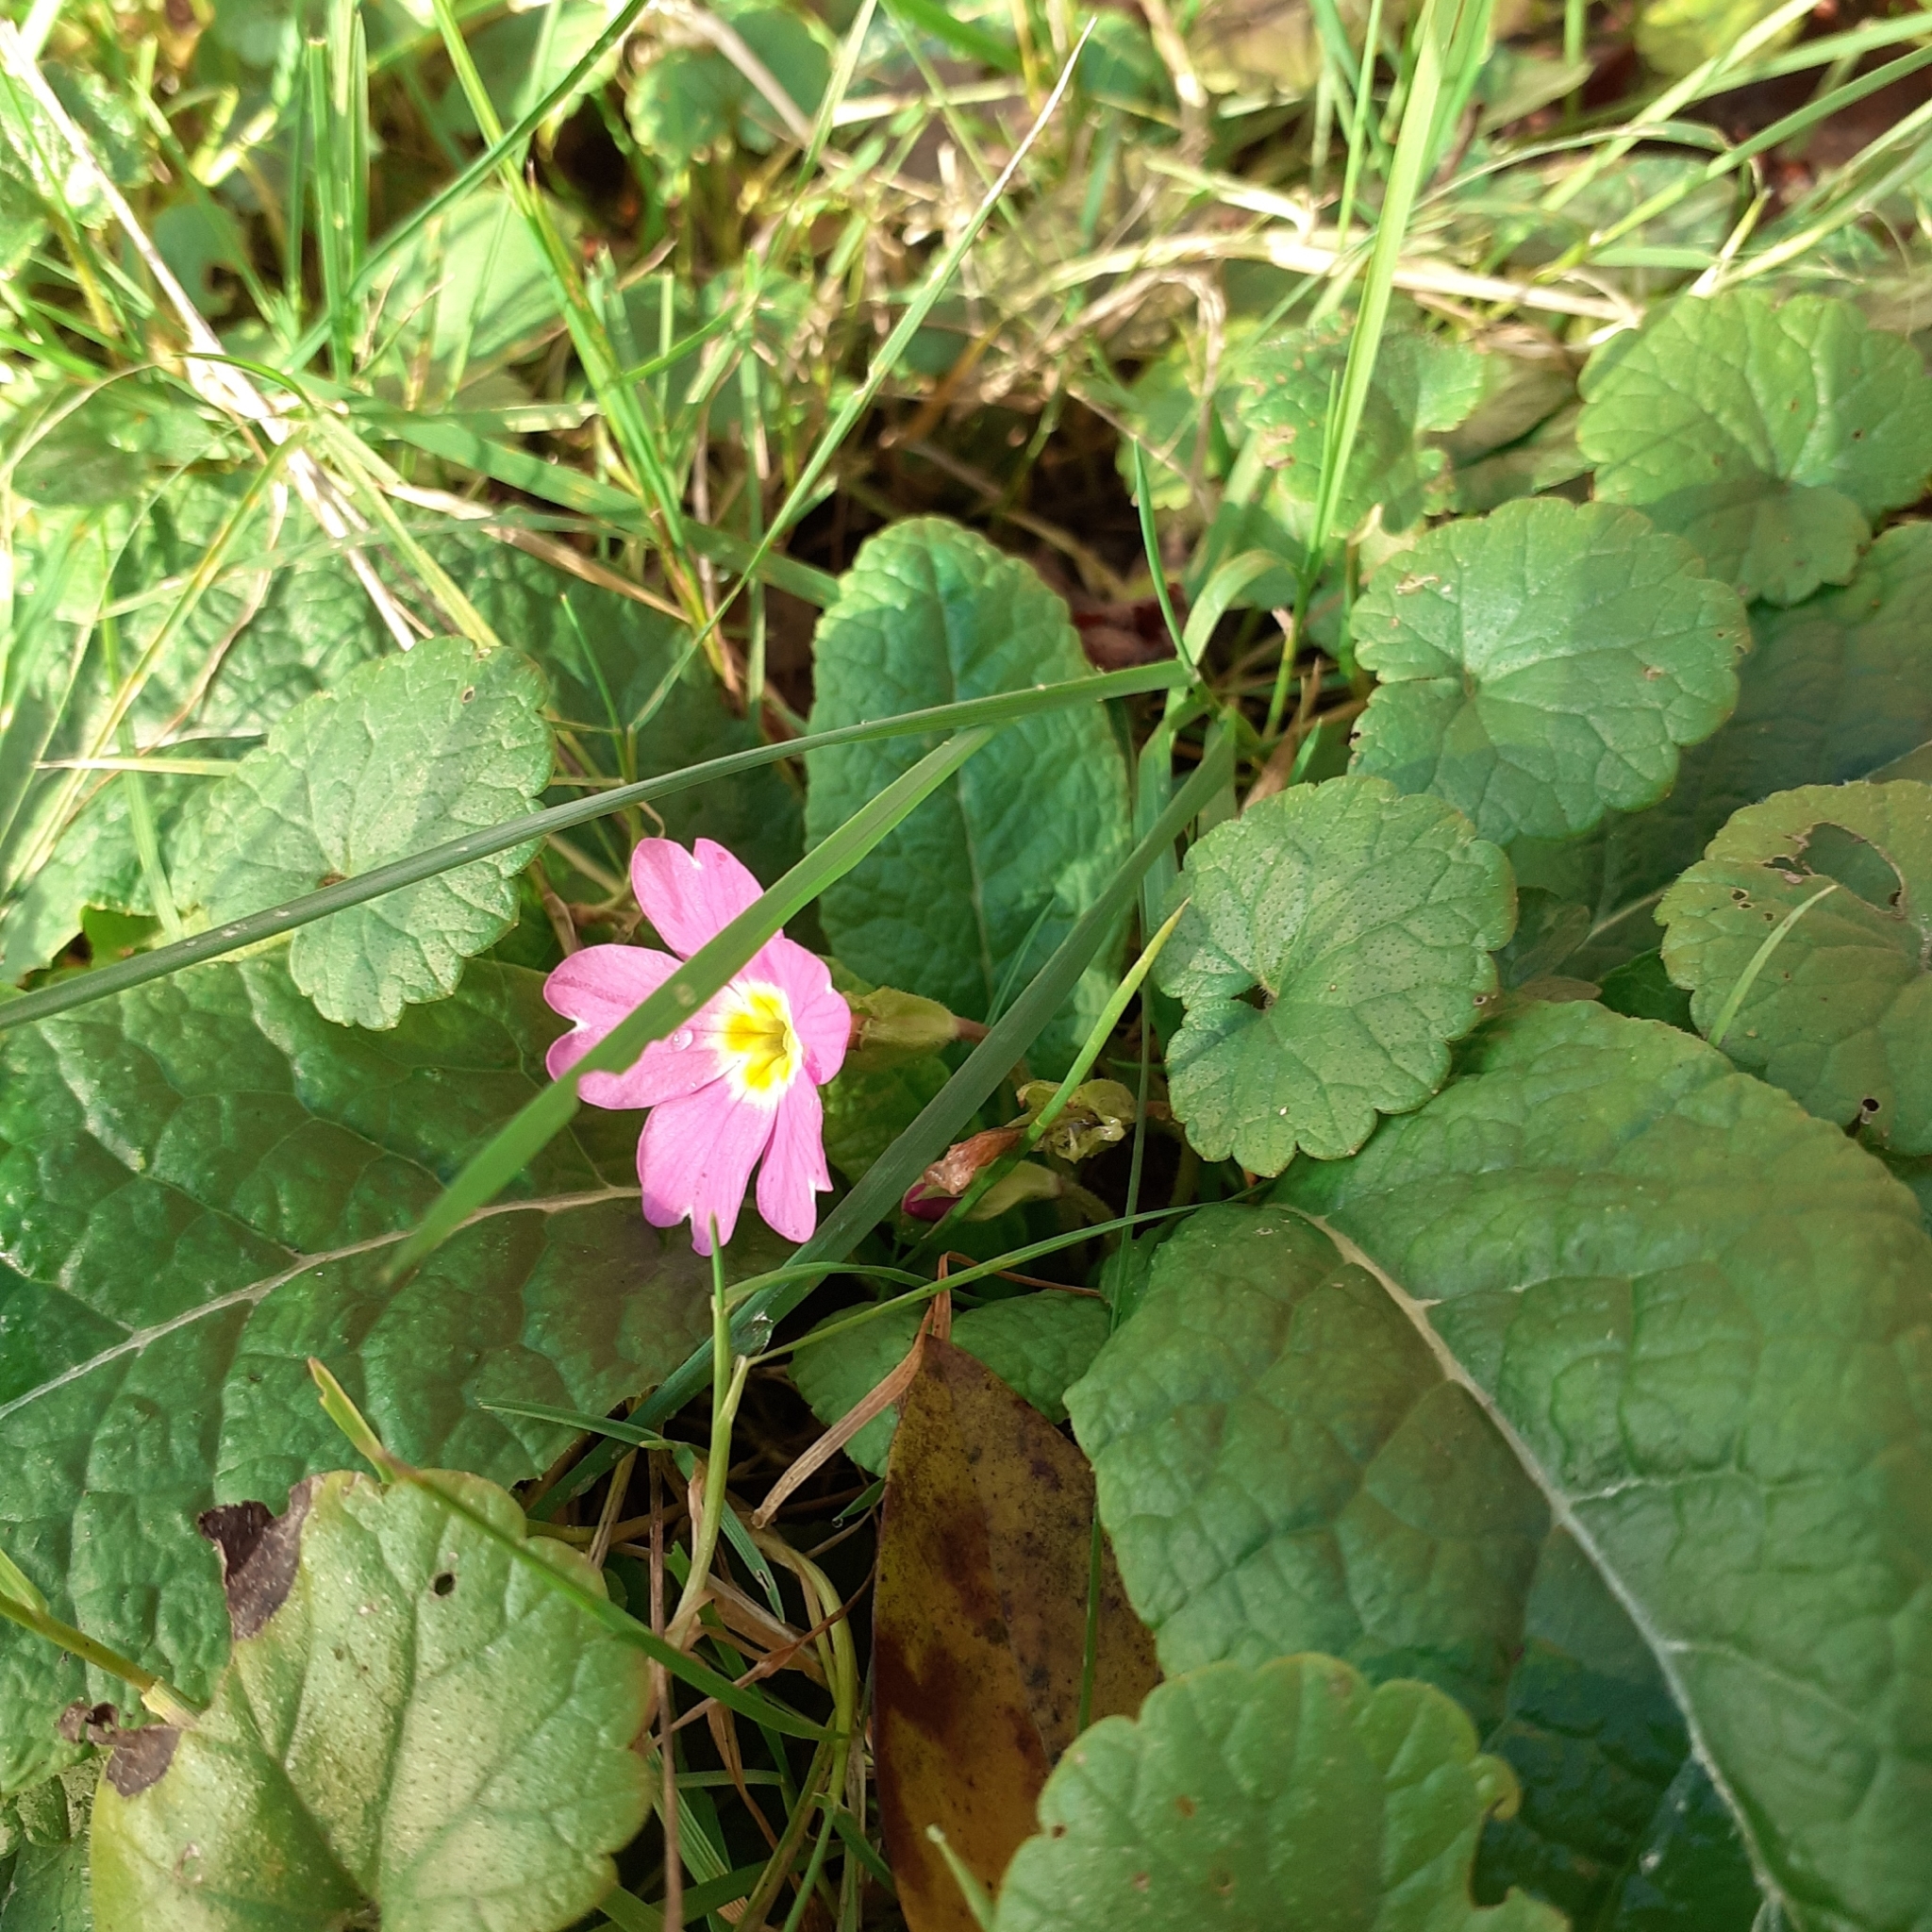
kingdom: Plantae
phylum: Tracheophyta
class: Magnoliopsida
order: Ericales
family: Primulaceae
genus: Primula
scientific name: Primula vulgaris
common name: Primrose
